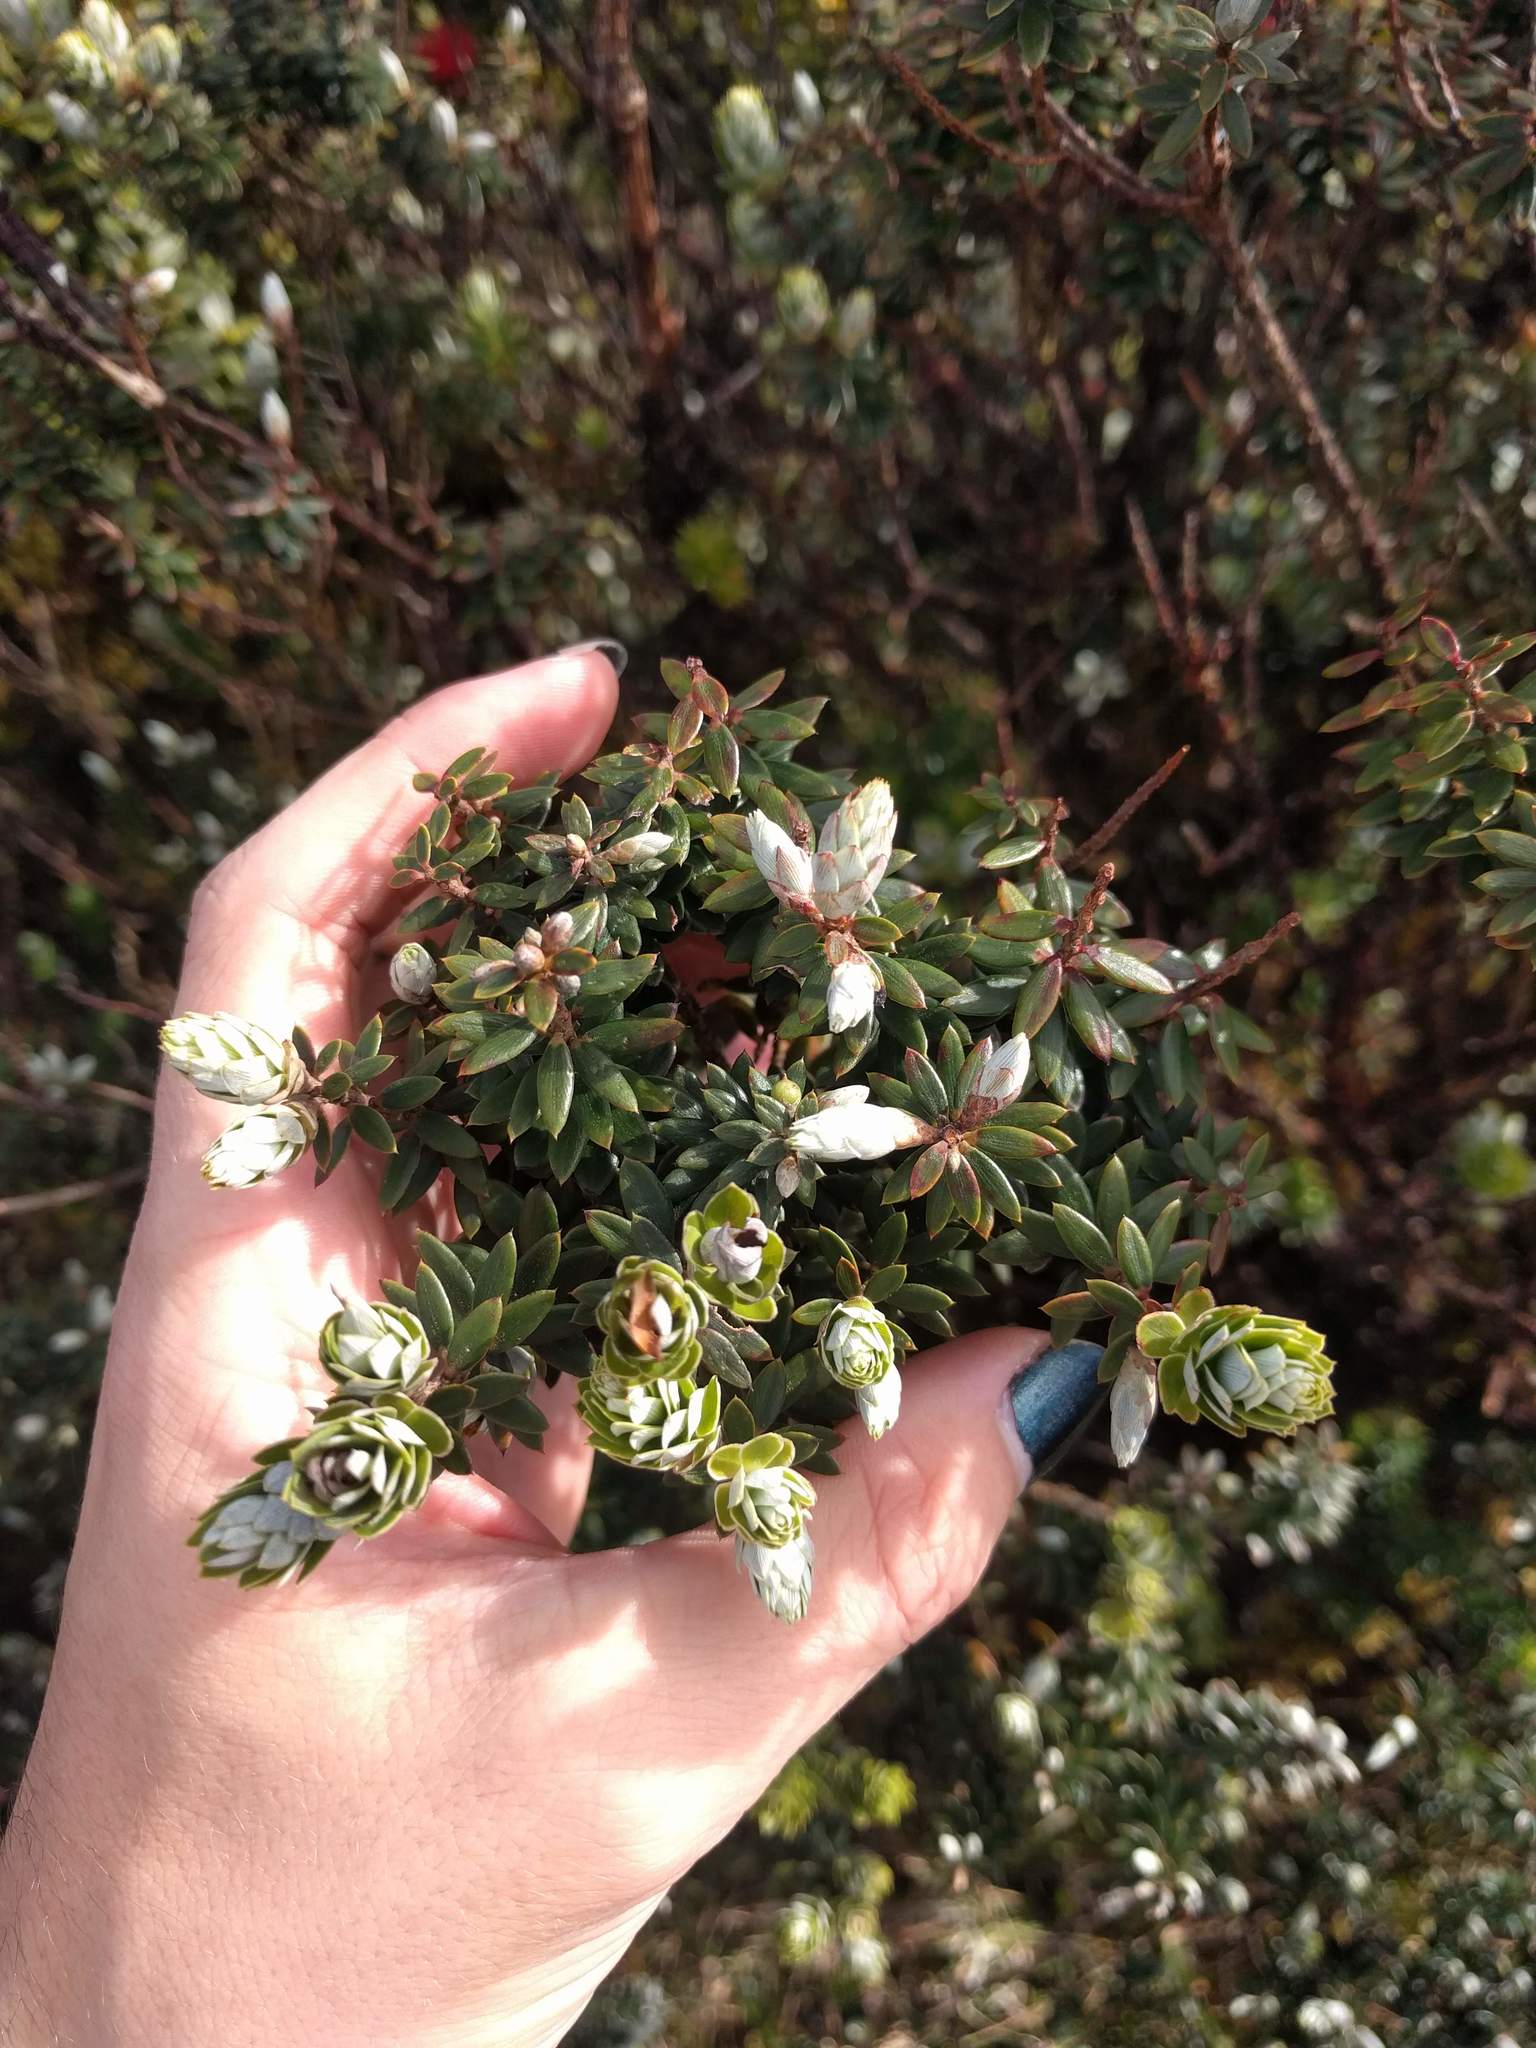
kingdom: Plantae
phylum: Tracheophyta
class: Magnoliopsida
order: Ericales
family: Ericaceae
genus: Leptecophylla
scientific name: Leptecophylla tameiameiae
